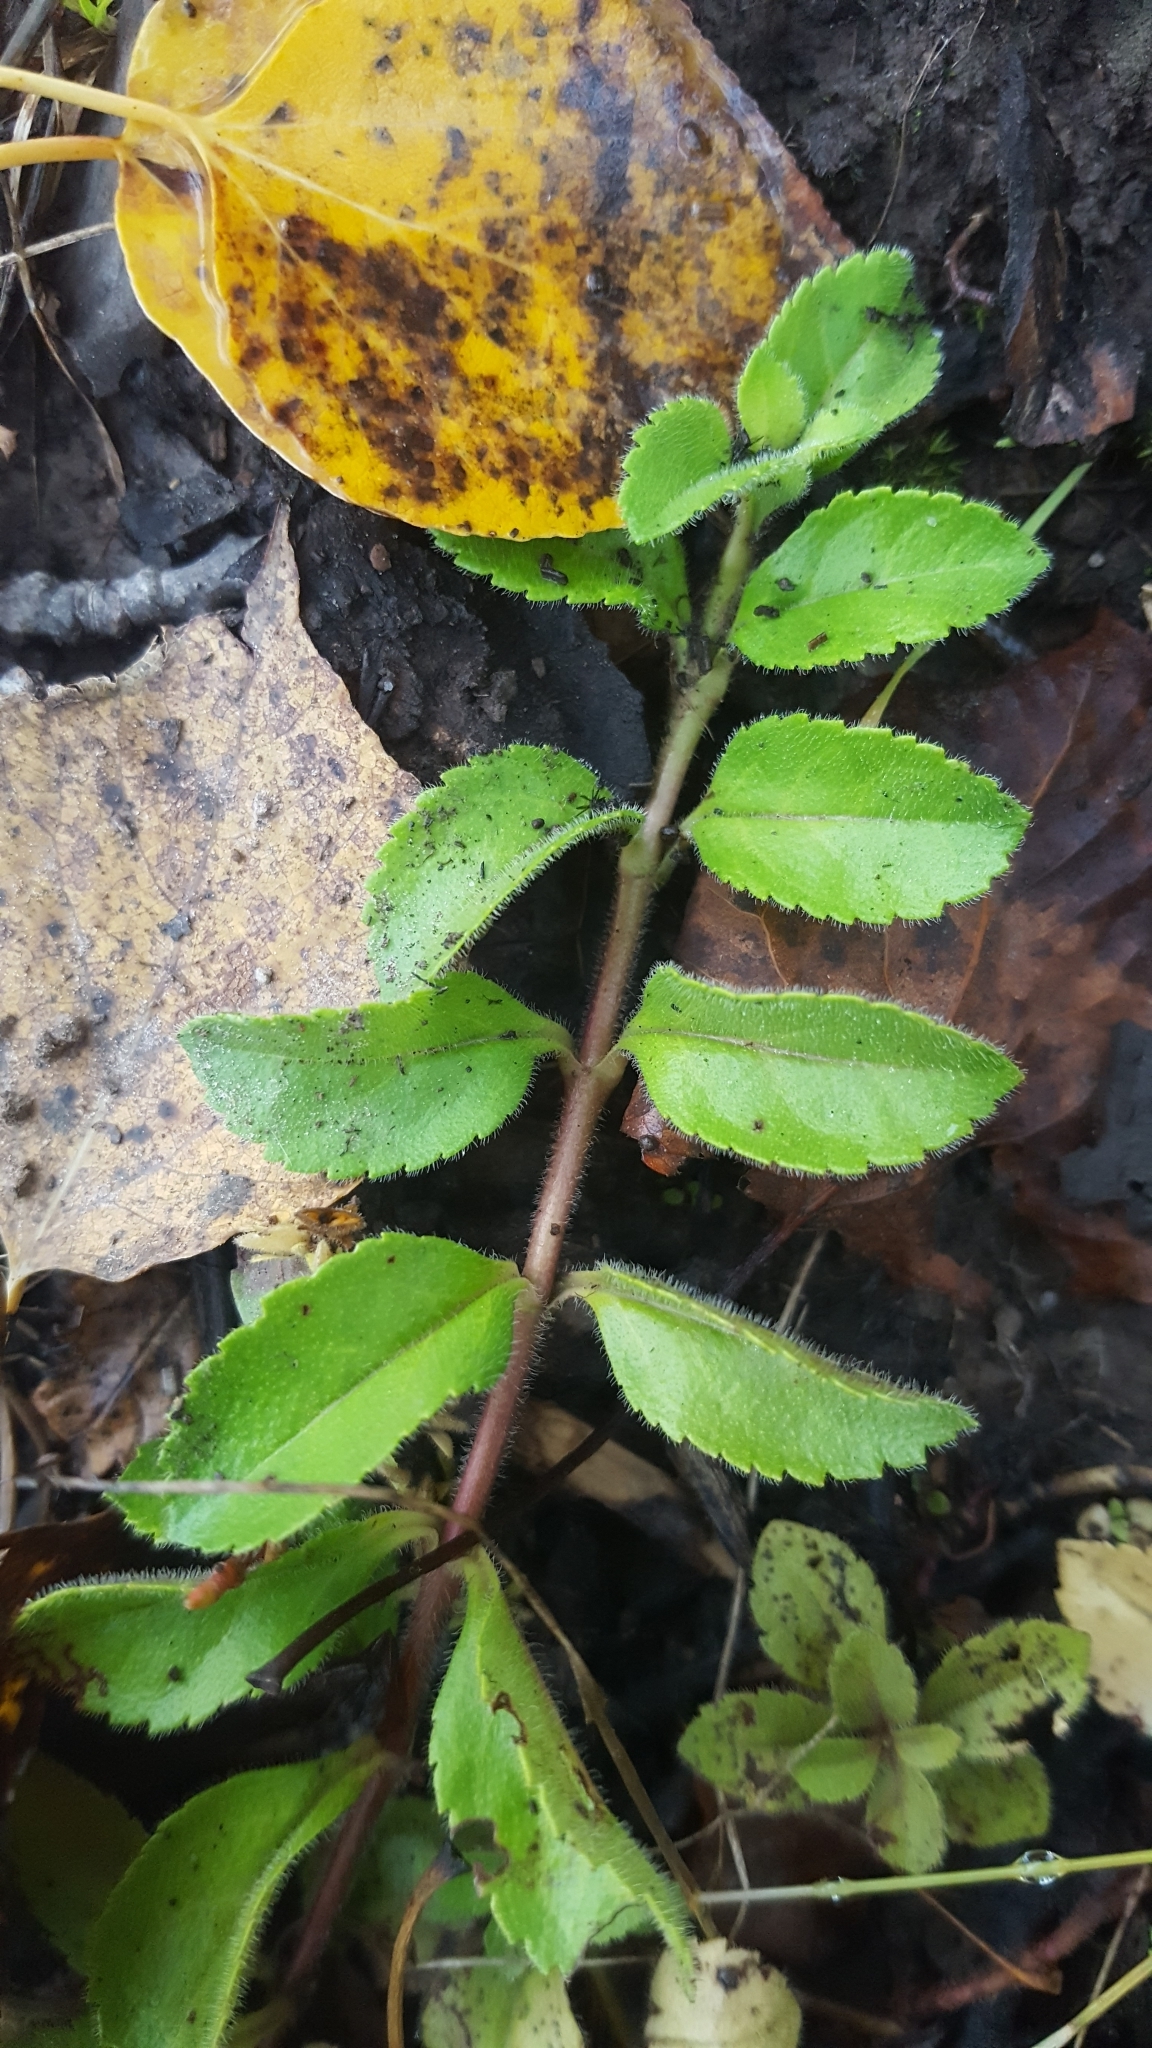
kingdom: Plantae
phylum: Tracheophyta
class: Magnoliopsida
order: Lamiales
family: Plantaginaceae
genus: Veronica
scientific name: Veronica officinalis
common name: Common speedwell
